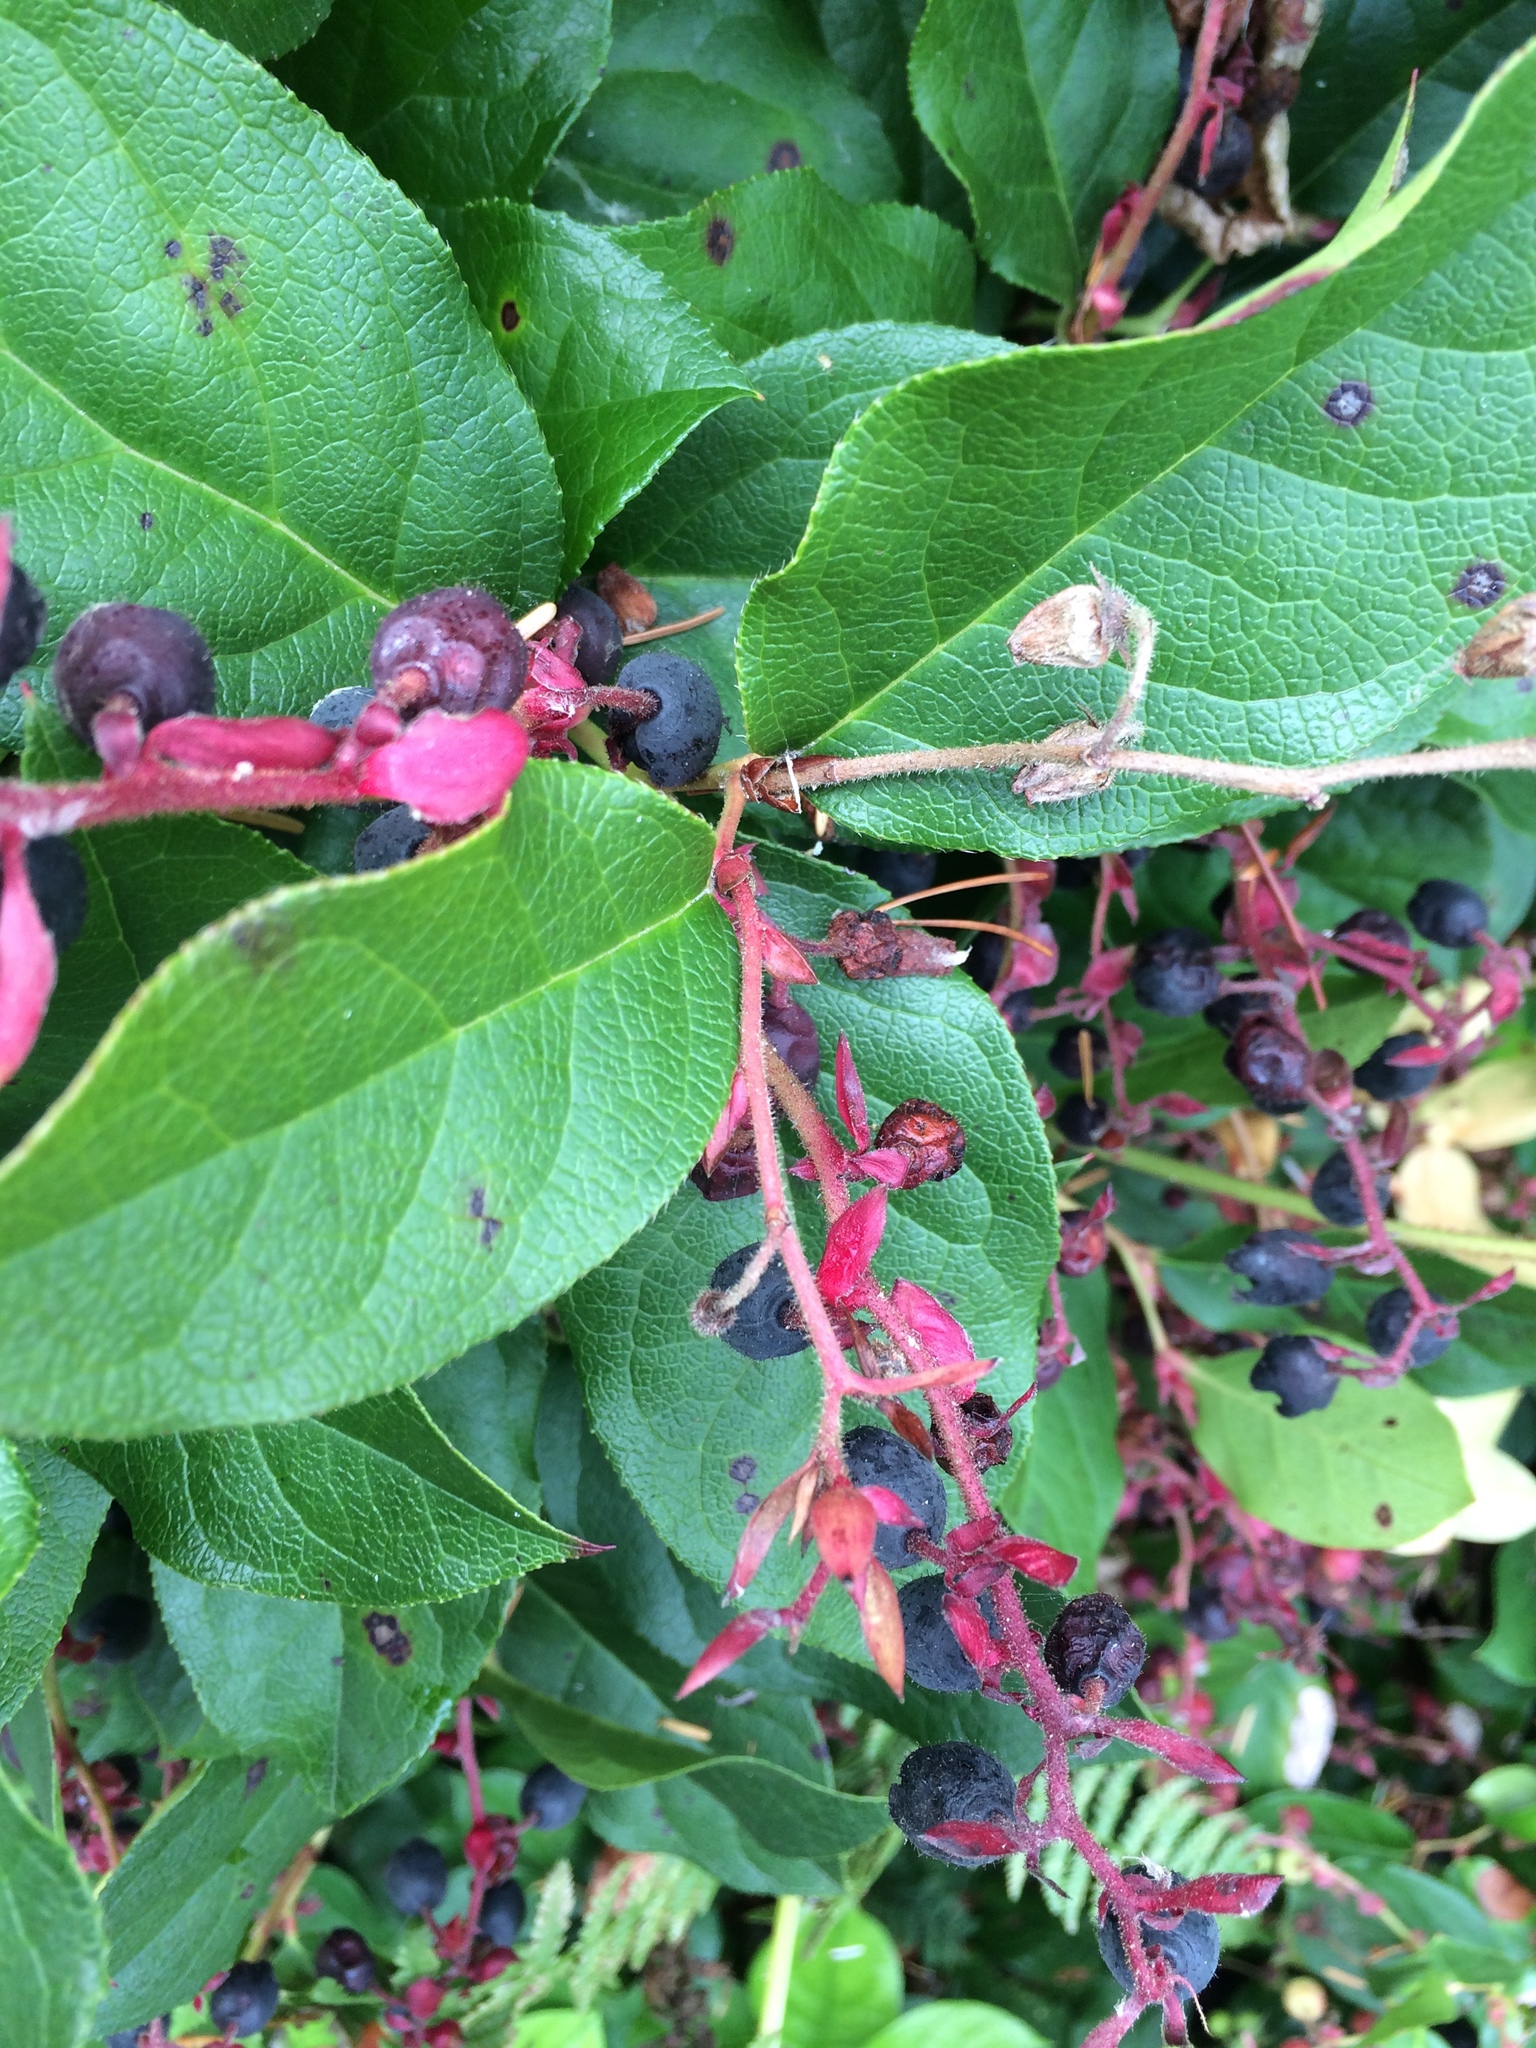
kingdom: Plantae
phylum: Tracheophyta
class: Magnoliopsida
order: Ericales
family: Ericaceae
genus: Gaultheria
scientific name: Gaultheria shallon
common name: Shallon
